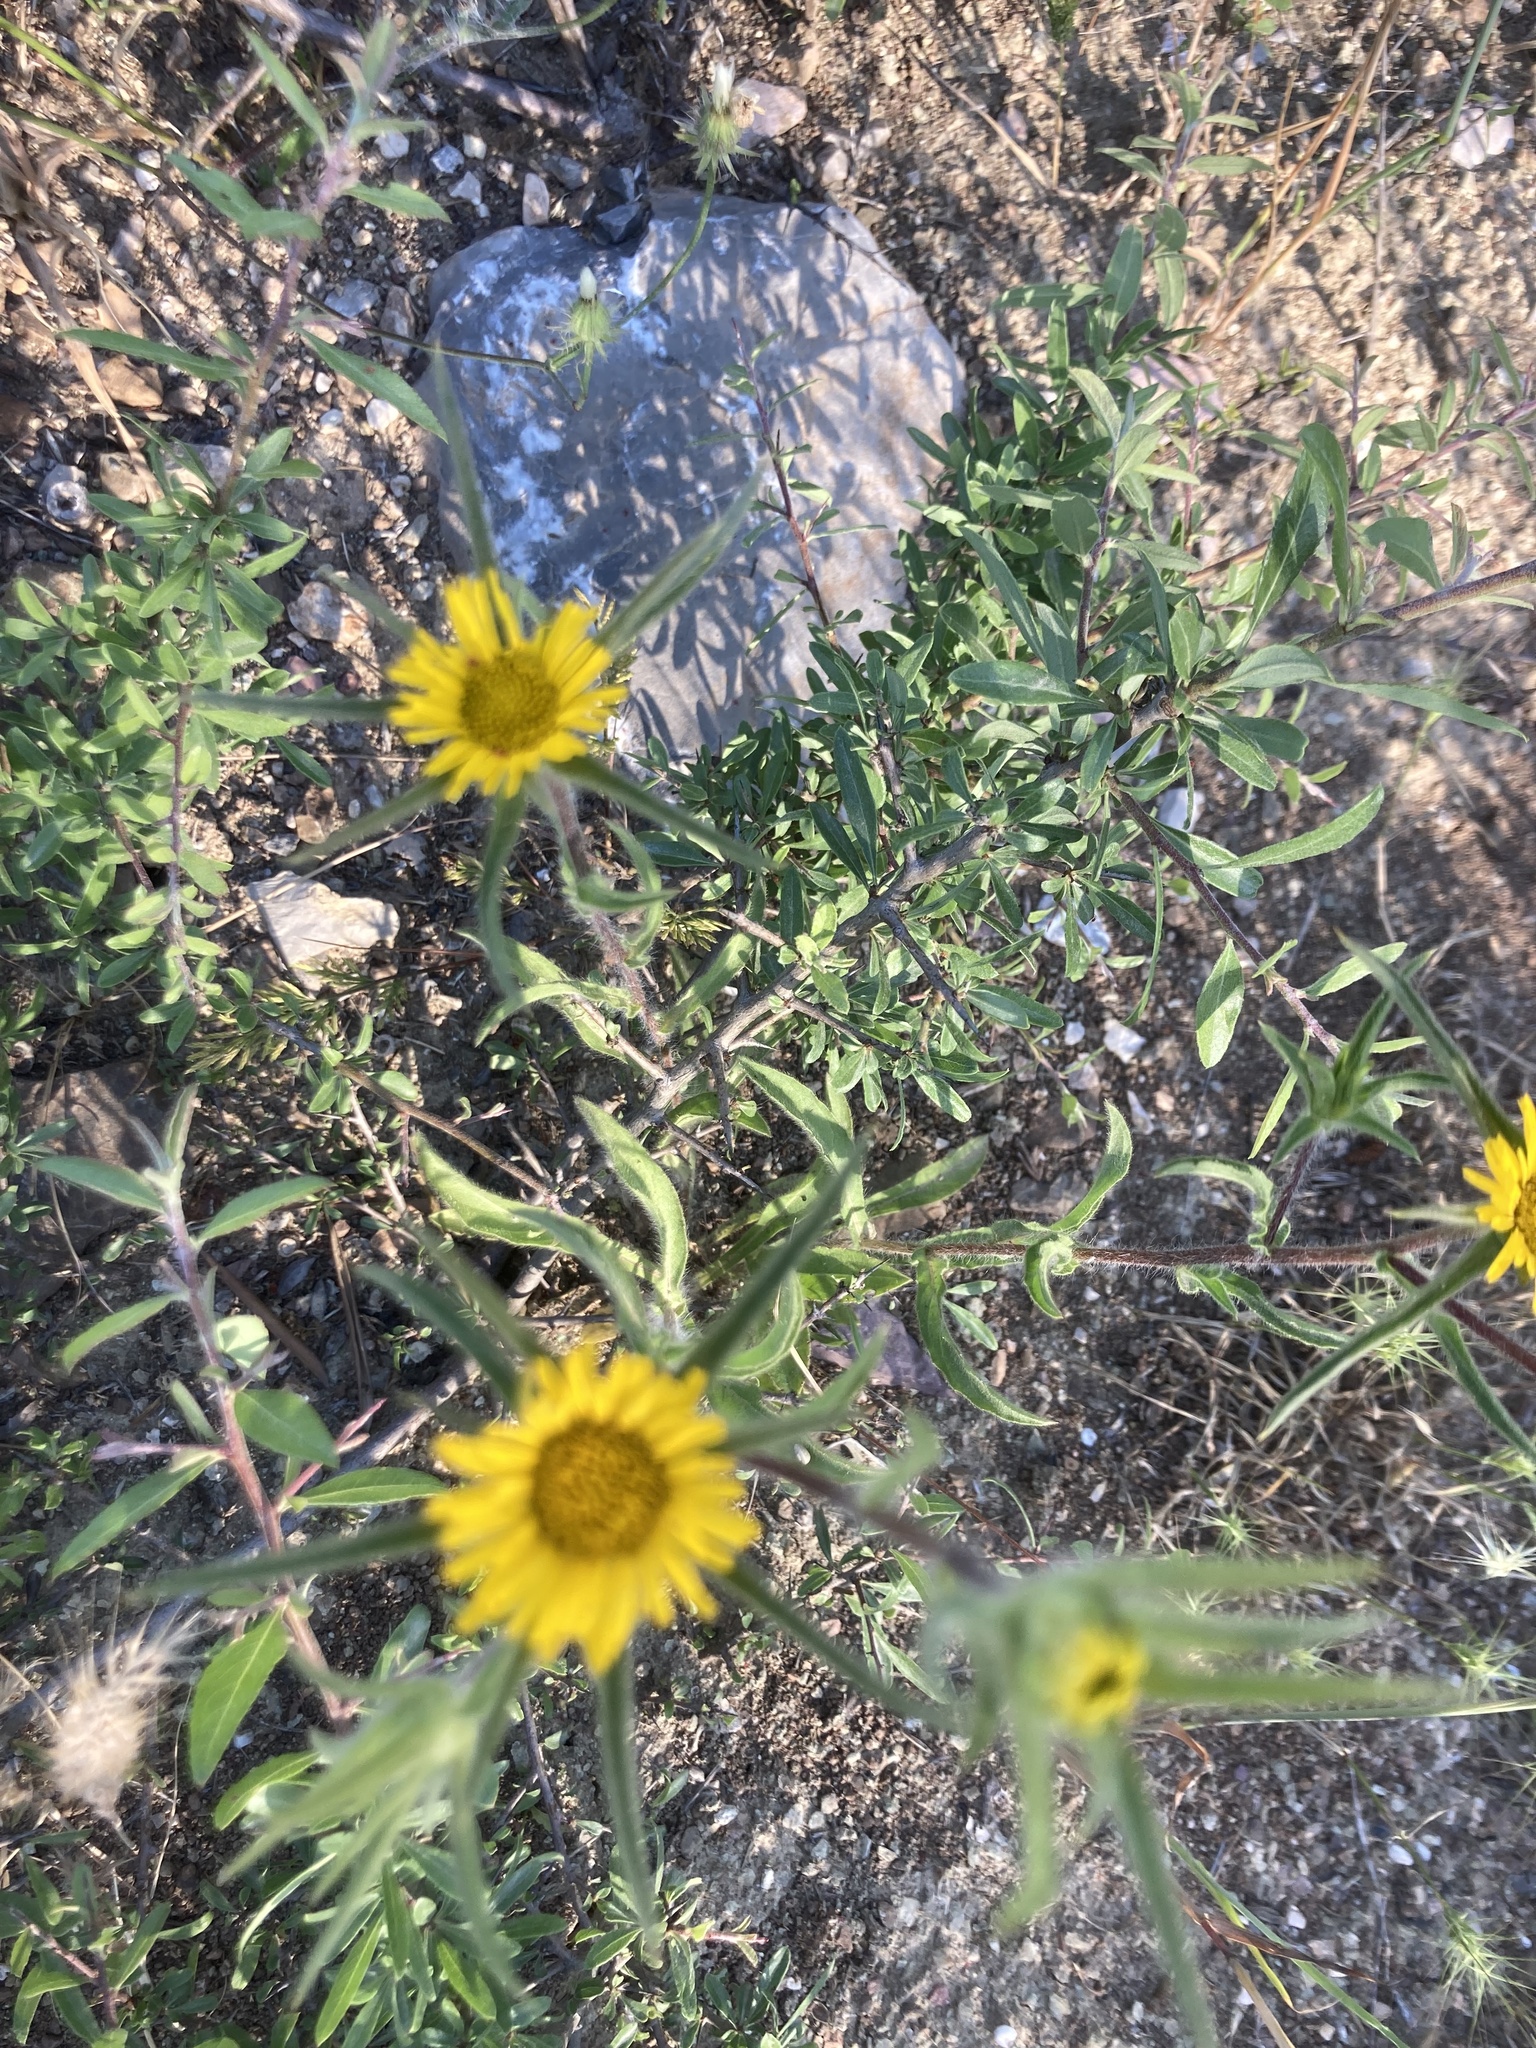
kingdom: Plantae
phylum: Tracheophyta
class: Magnoliopsida
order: Asterales
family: Asteraceae
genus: Pallenis
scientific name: Pallenis spinosa
